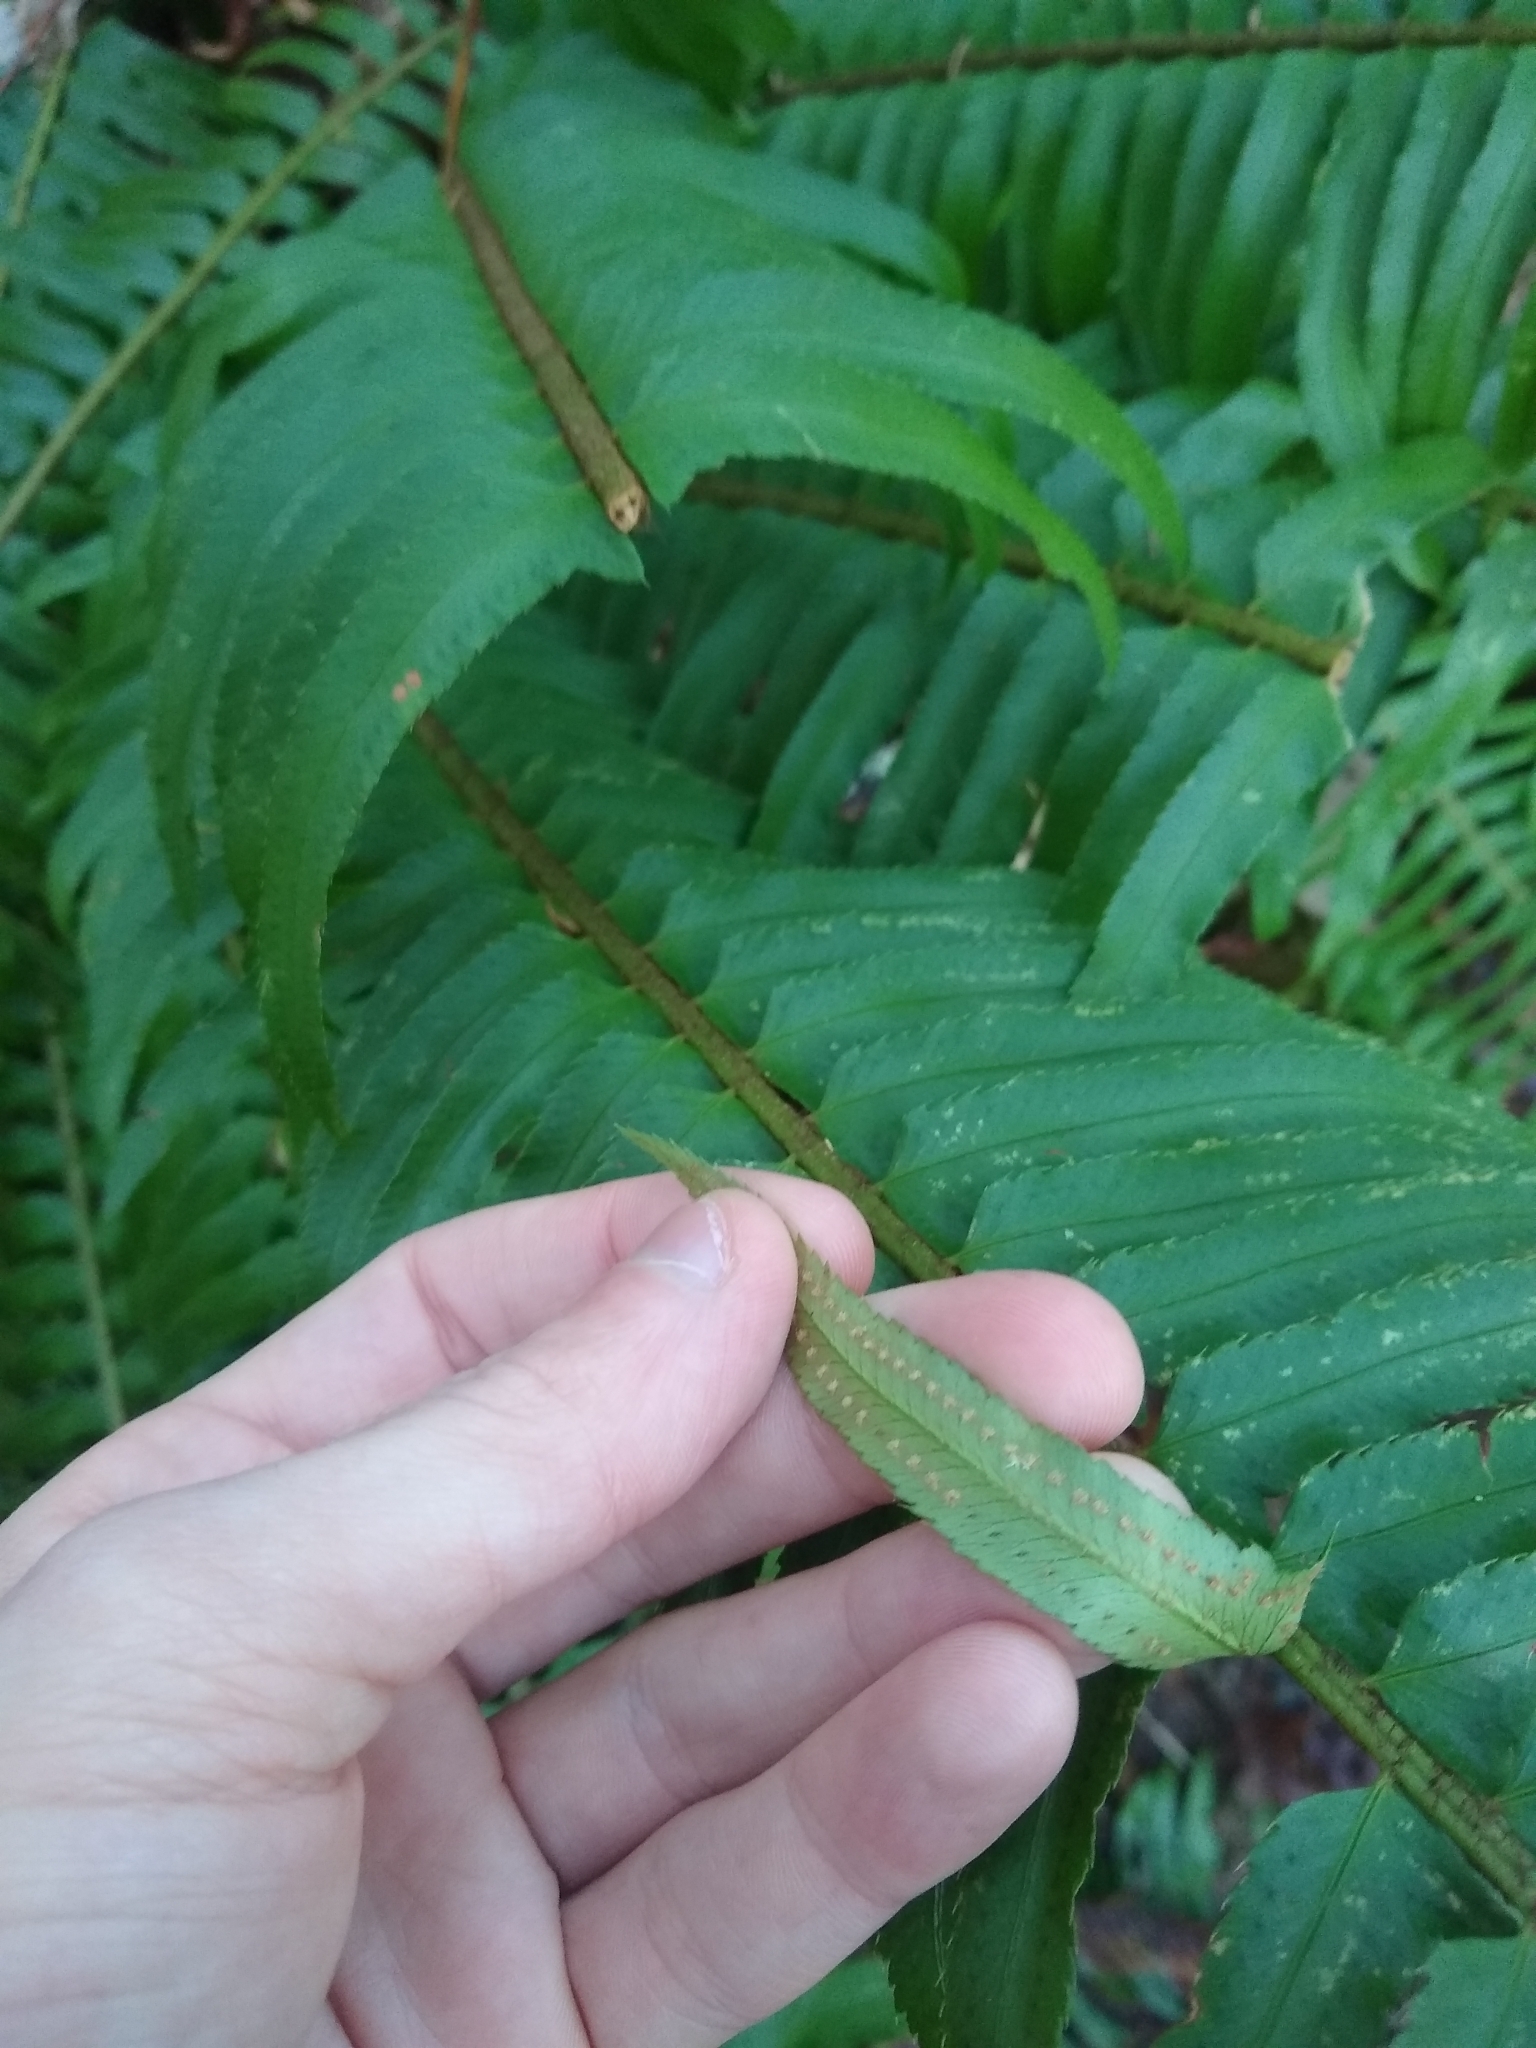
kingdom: Plantae
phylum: Tracheophyta
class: Polypodiopsida
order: Polypodiales
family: Dryopteridaceae
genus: Polystichum
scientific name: Polystichum munitum
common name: Western sword-fern
